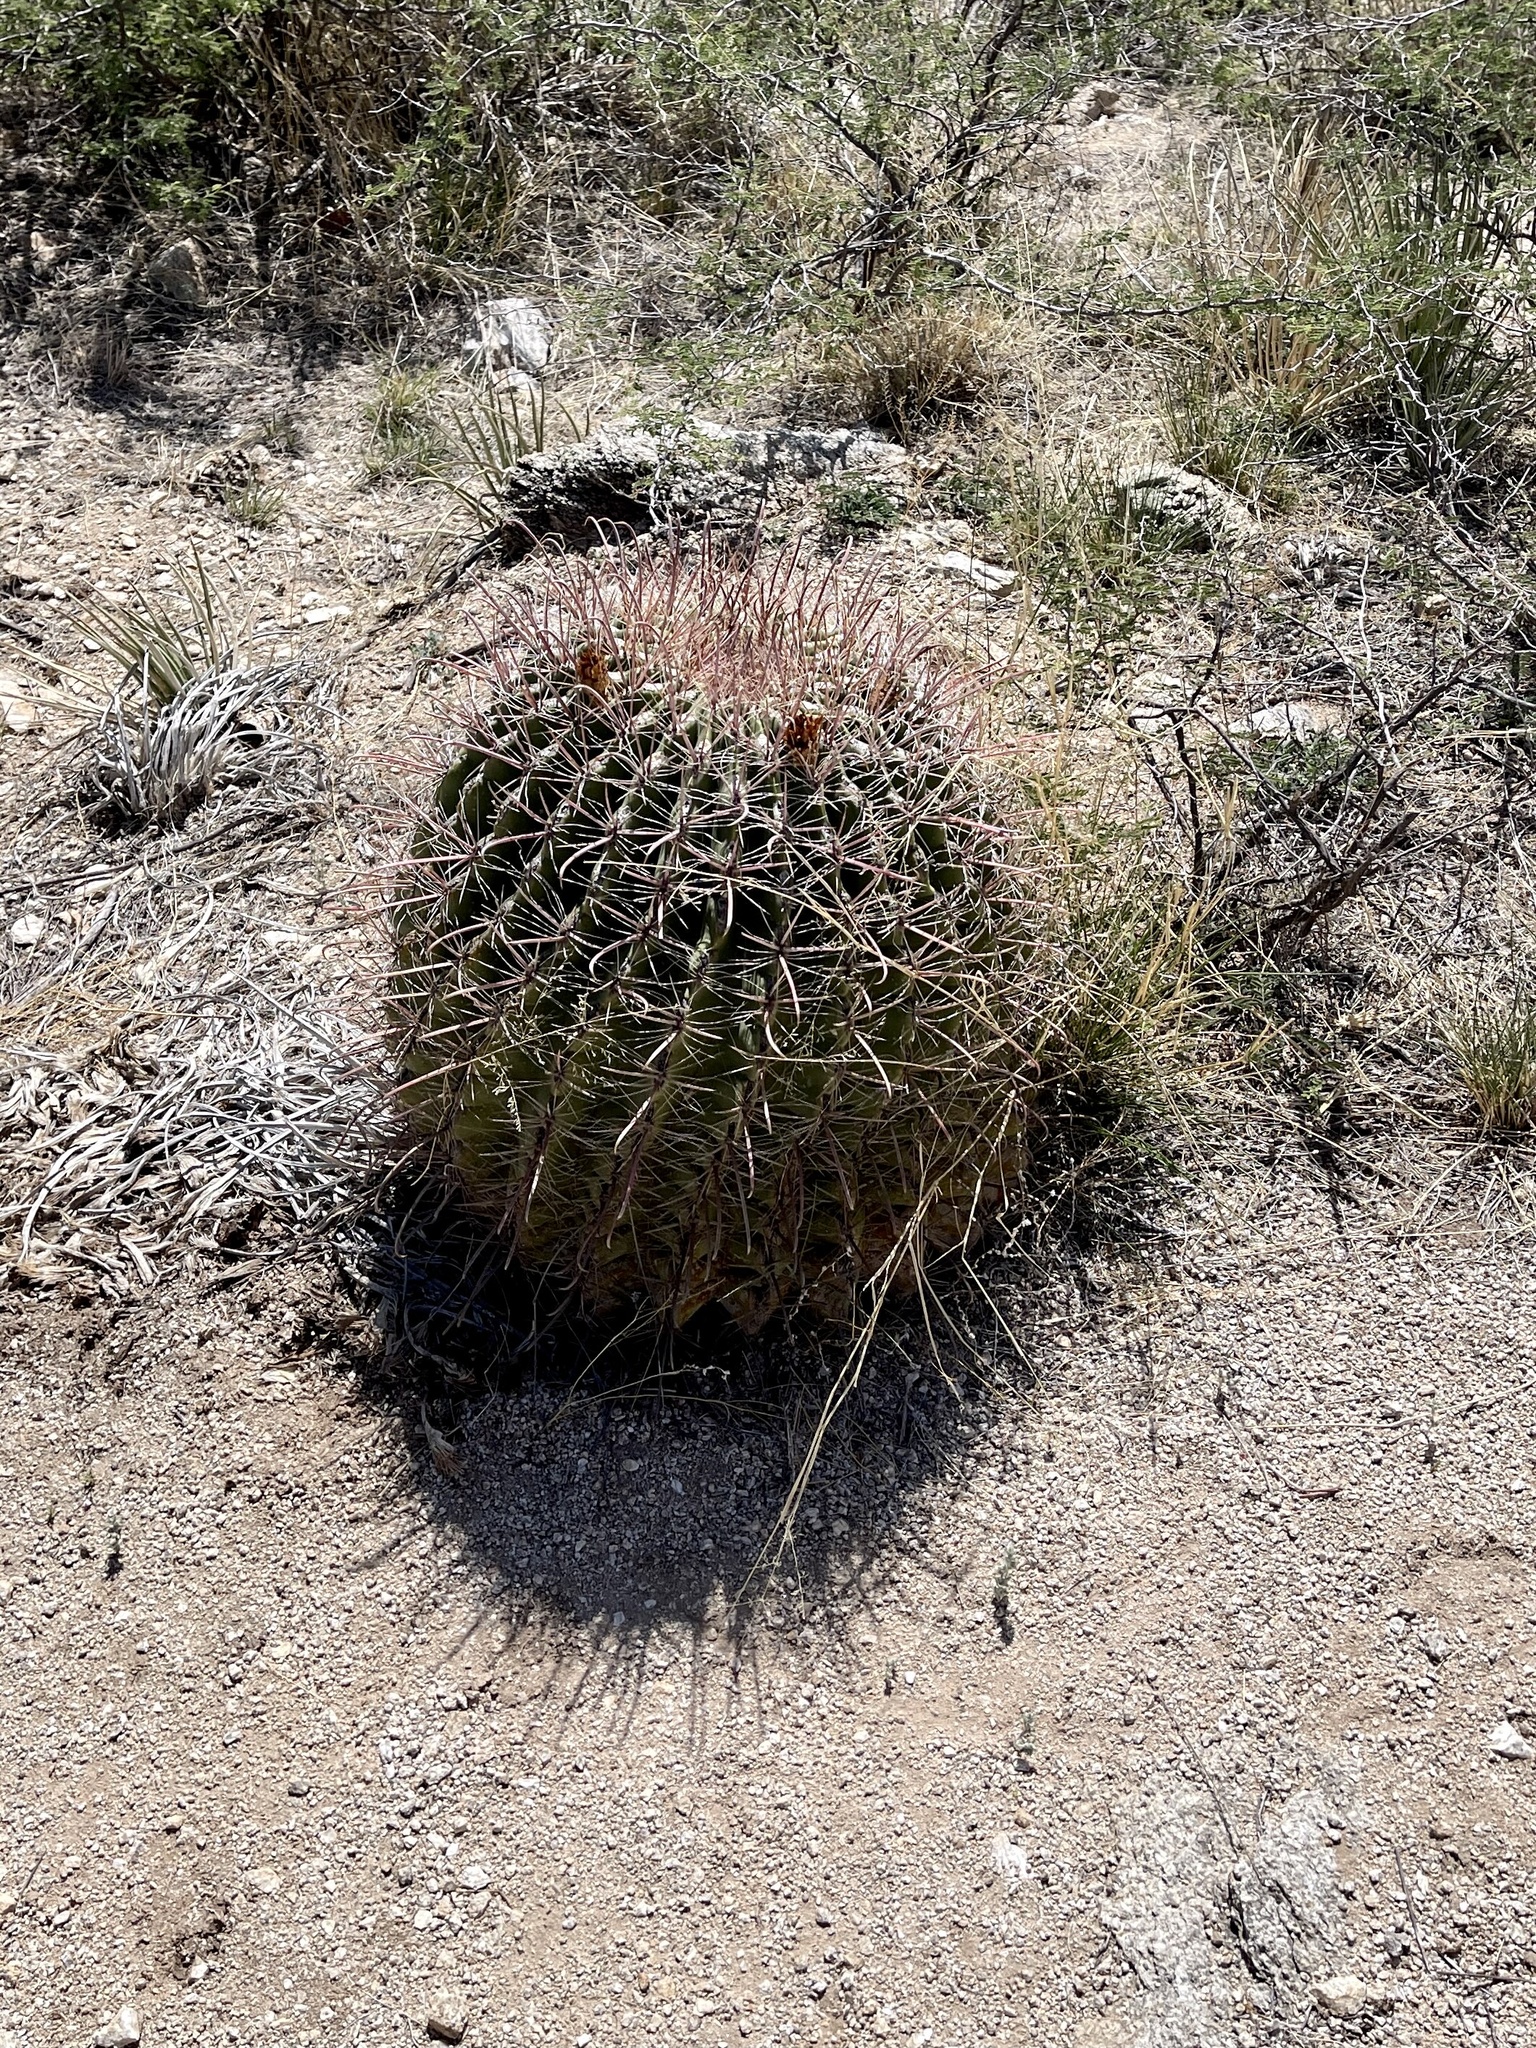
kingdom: Plantae
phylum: Tracheophyta
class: Magnoliopsida
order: Caryophyllales
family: Cactaceae
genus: Ferocactus
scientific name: Ferocactus wislizeni
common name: Candy barrel cactus
